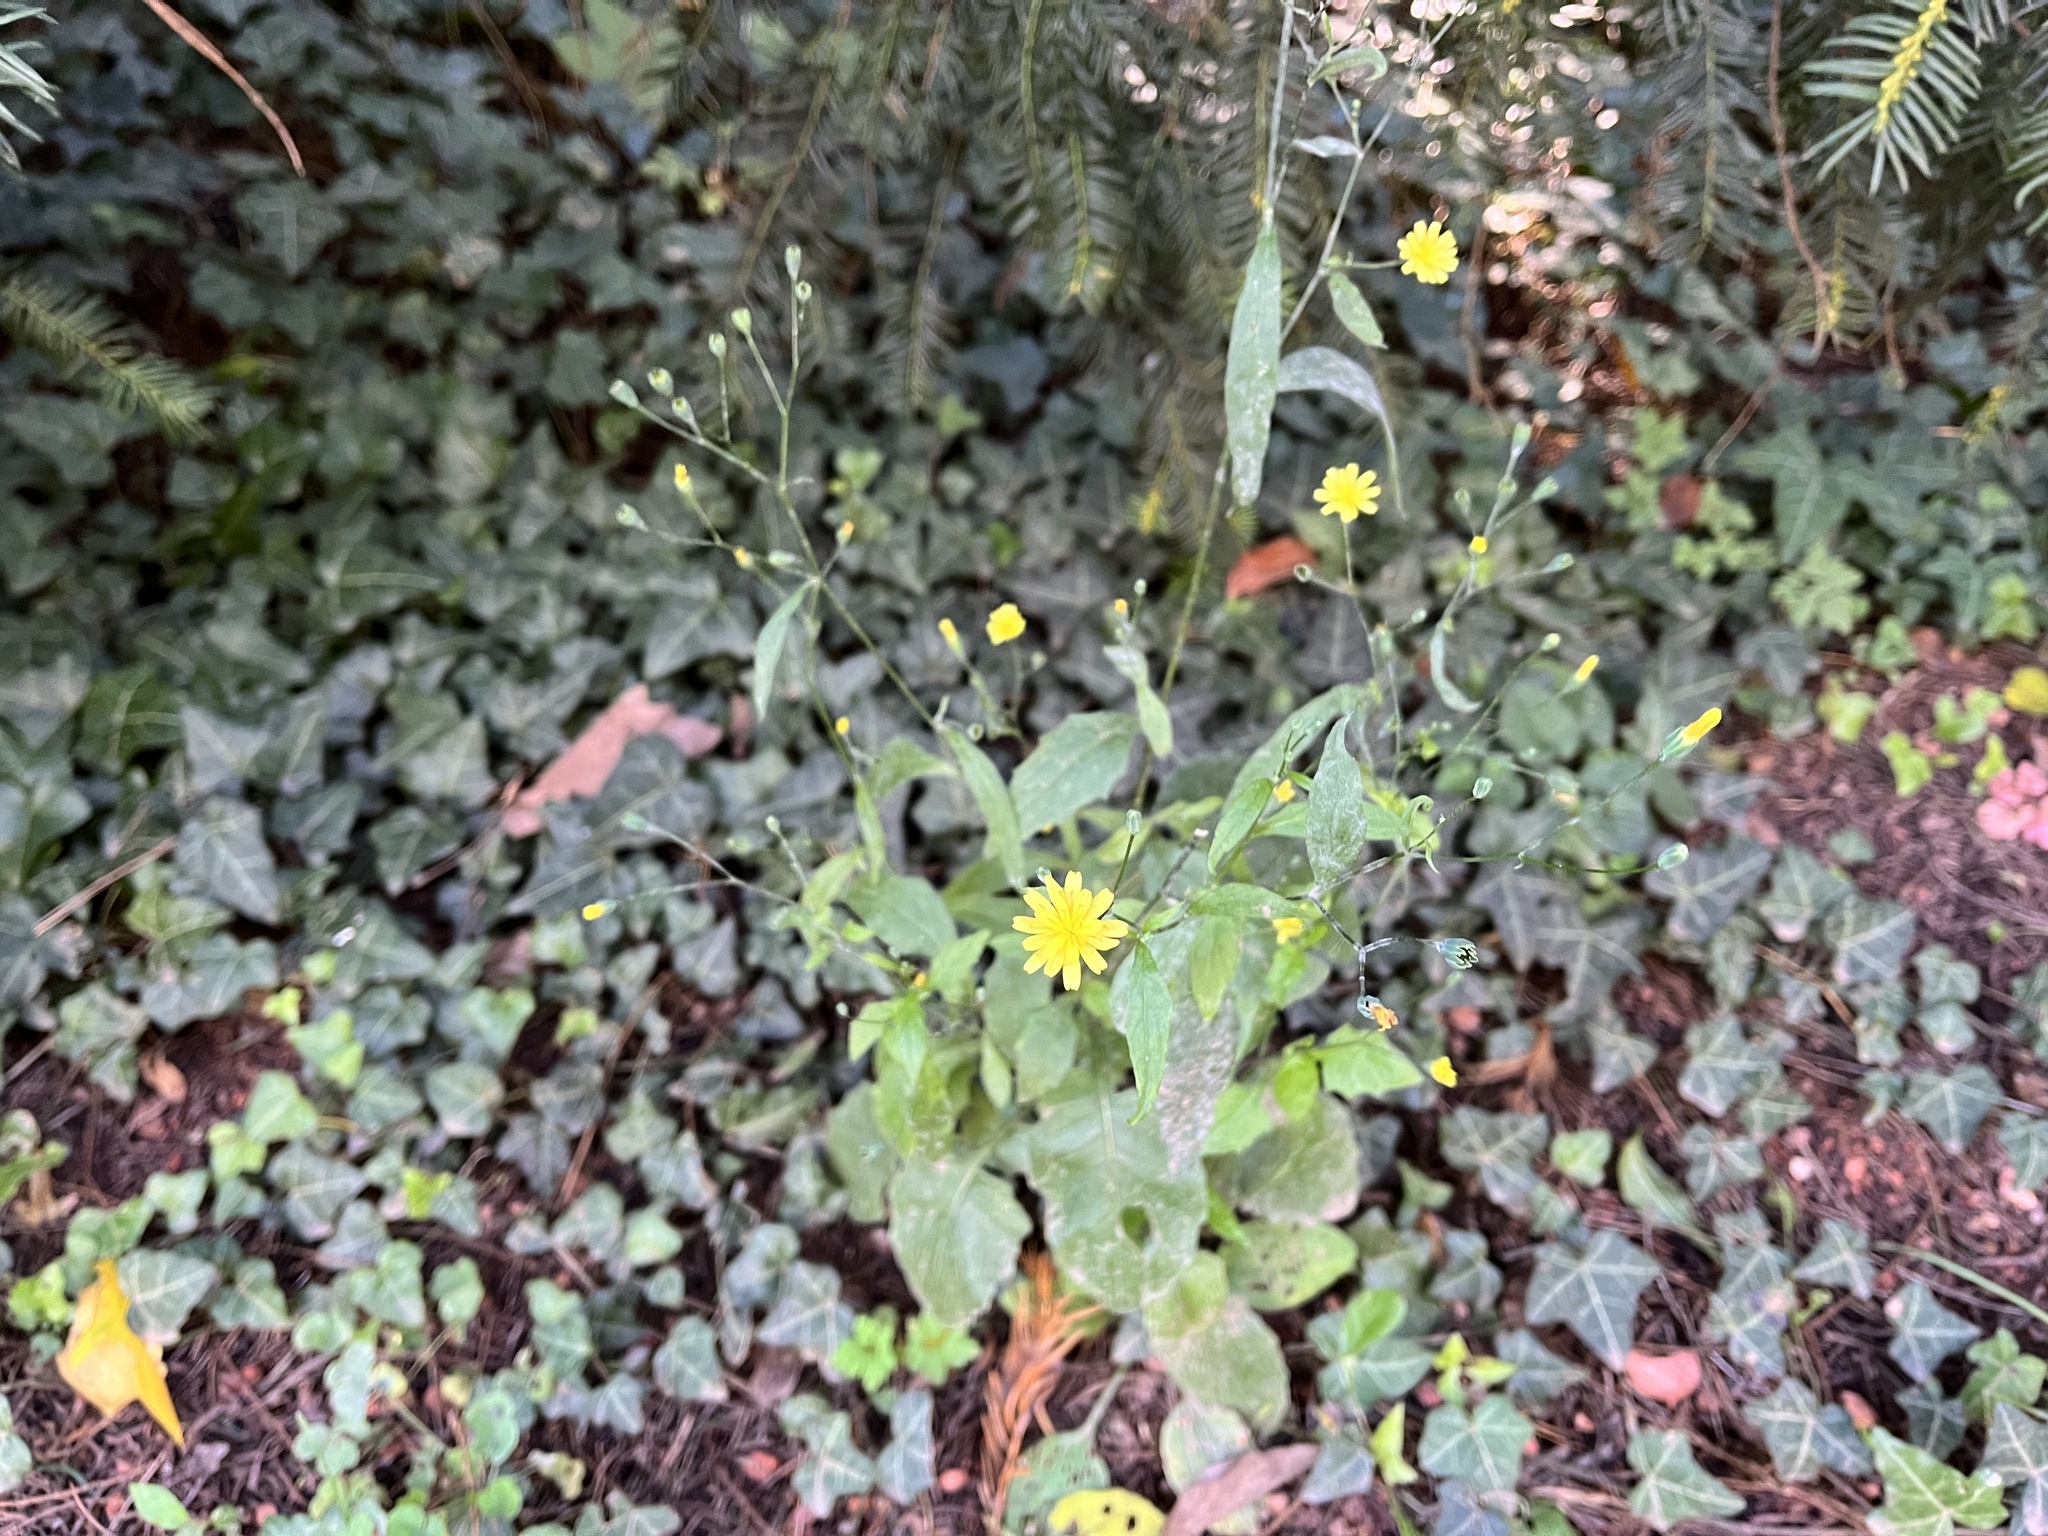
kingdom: Plantae
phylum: Tracheophyta
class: Magnoliopsida
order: Asterales
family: Asteraceae
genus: Lapsana
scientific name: Lapsana communis
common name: Nipplewort
